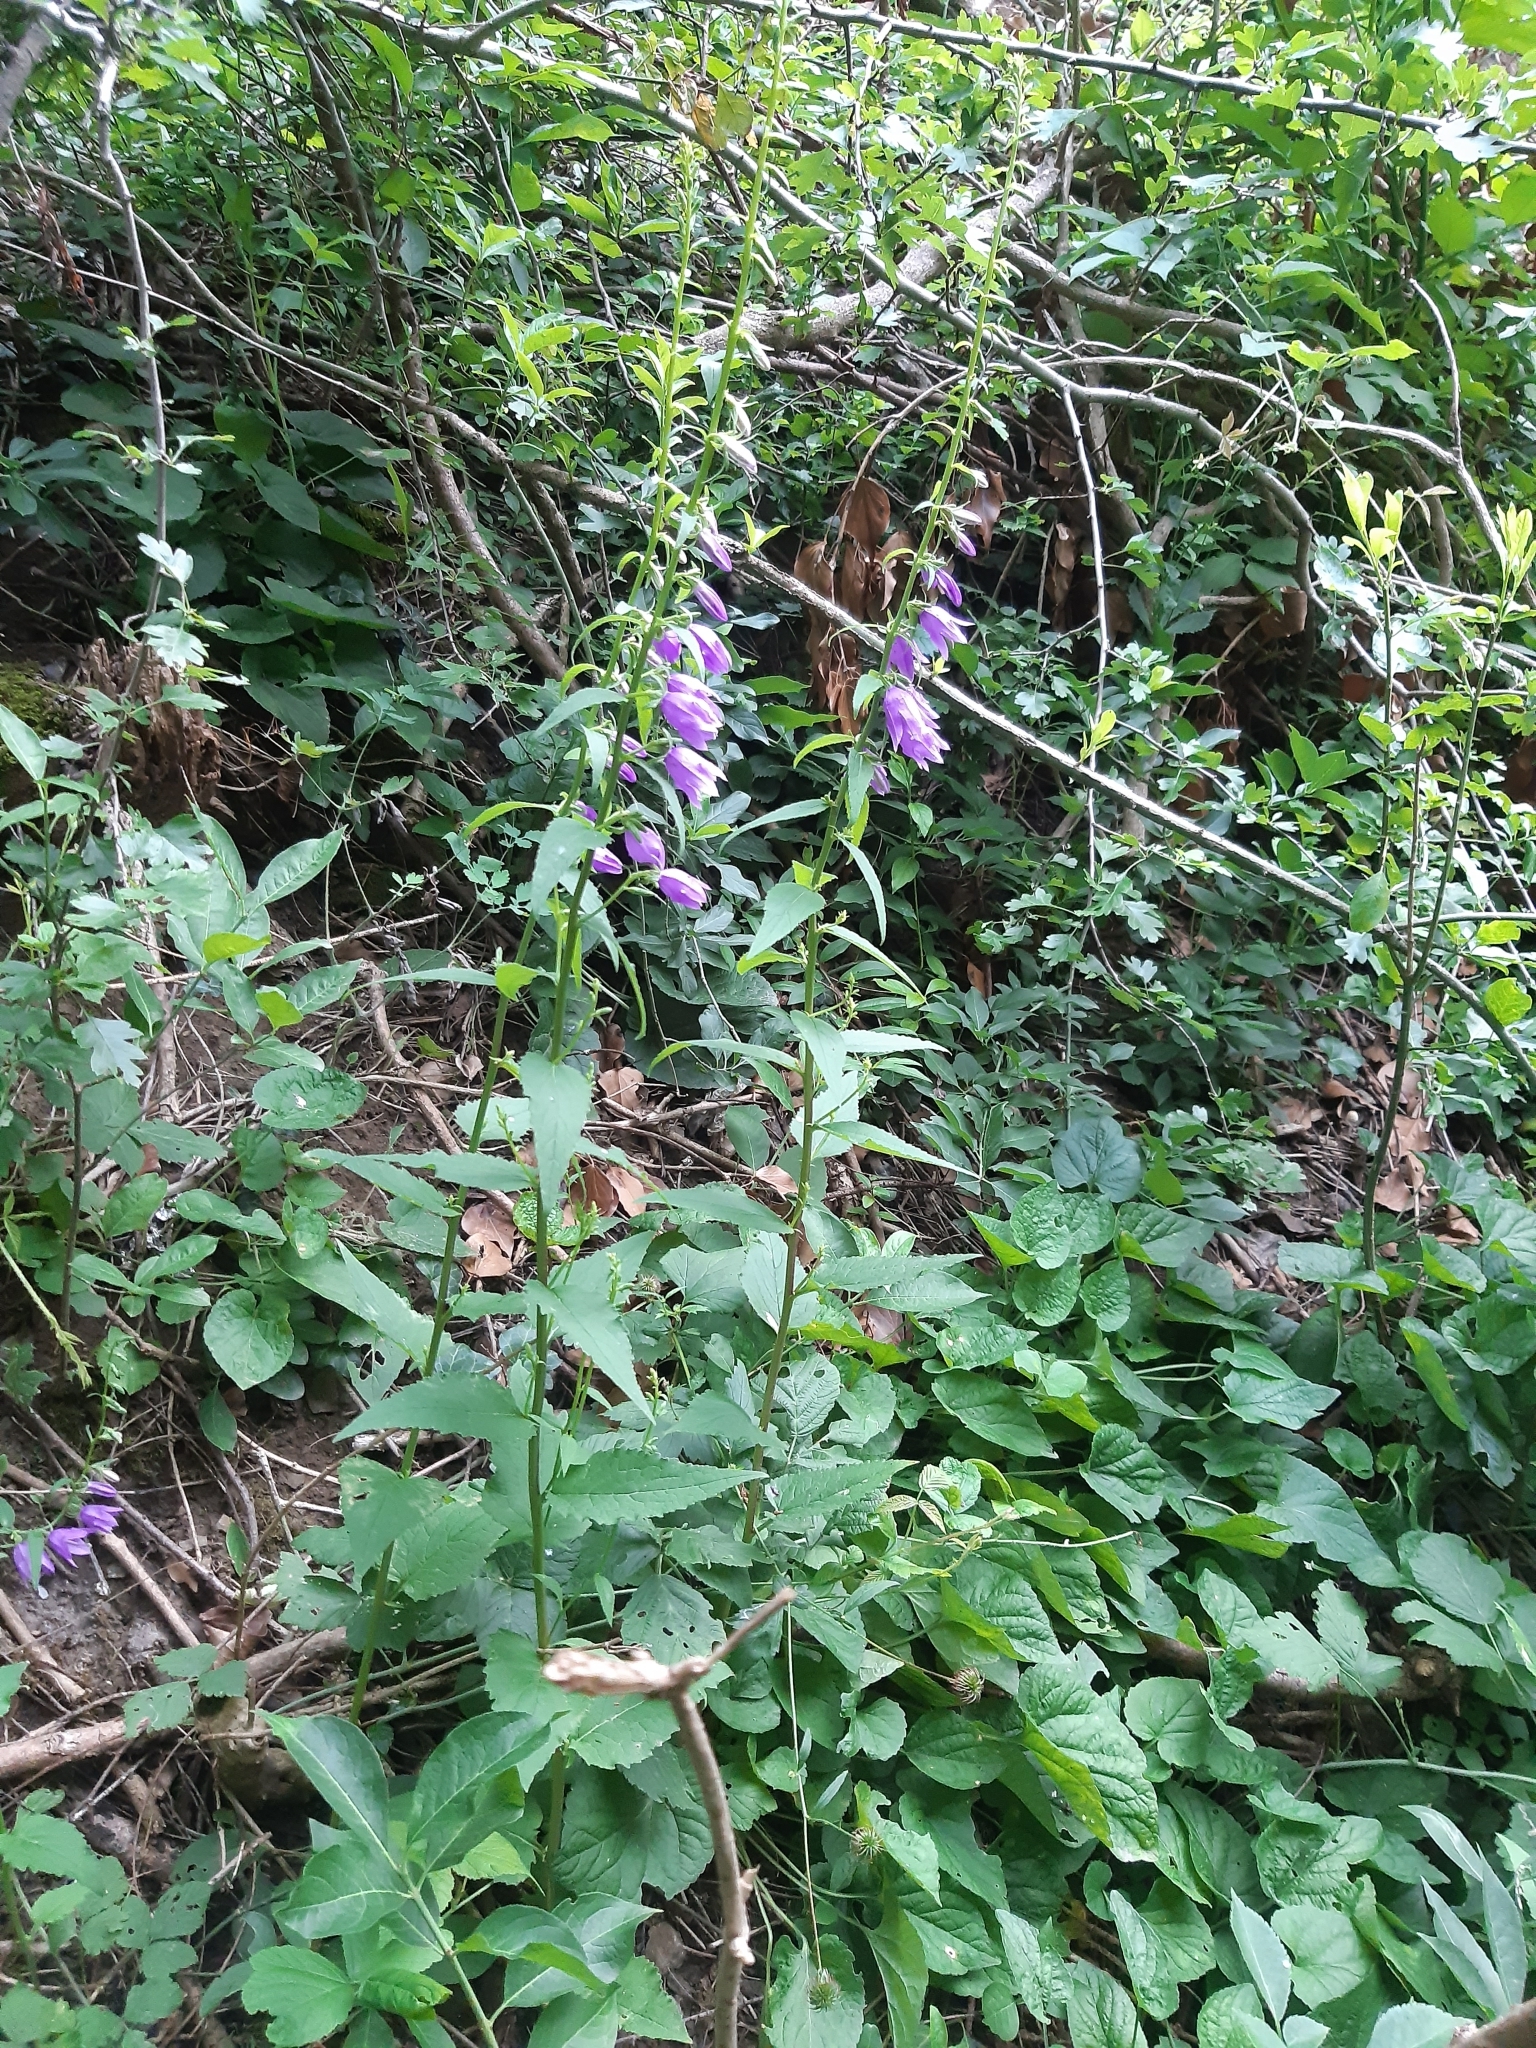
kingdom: Plantae
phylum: Tracheophyta
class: Magnoliopsida
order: Asterales
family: Campanulaceae
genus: Campanula
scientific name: Campanula rapunculoides
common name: Creeping bellflower
